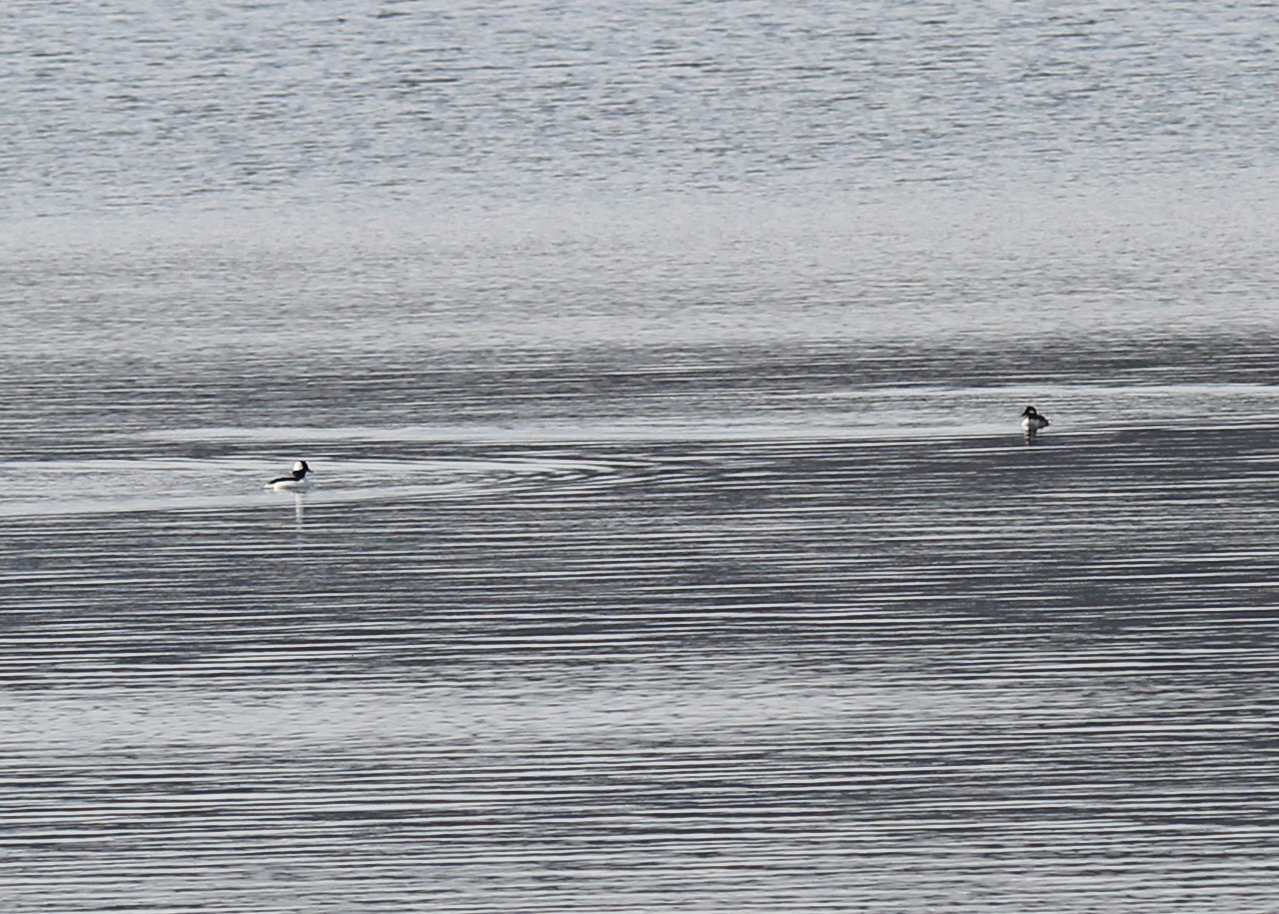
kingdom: Animalia
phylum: Chordata
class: Aves
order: Anseriformes
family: Anatidae
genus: Bucephala
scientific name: Bucephala albeola
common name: Bufflehead
